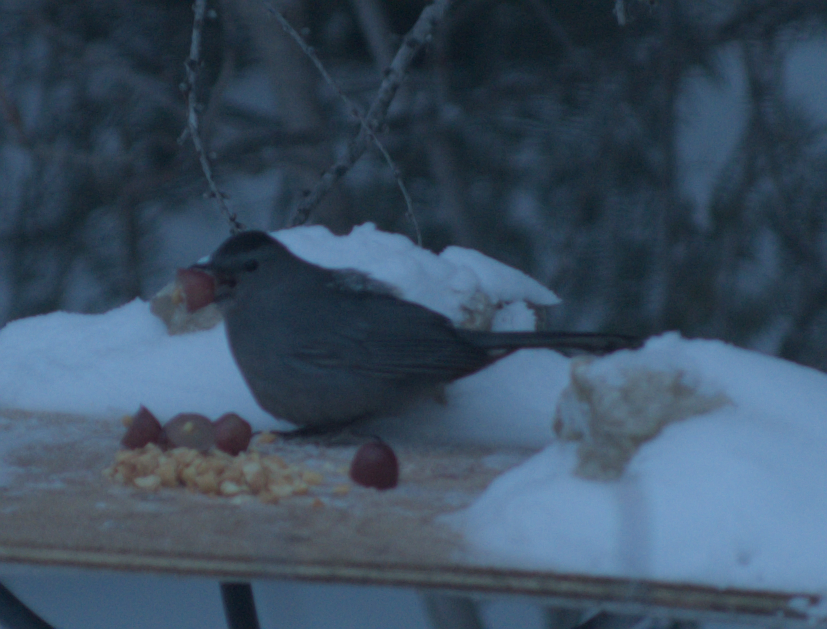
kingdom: Animalia
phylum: Chordata
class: Aves
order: Passeriformes
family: Mimidae
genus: Dumetella
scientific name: Dumetella carolinensis
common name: Gray catbird
